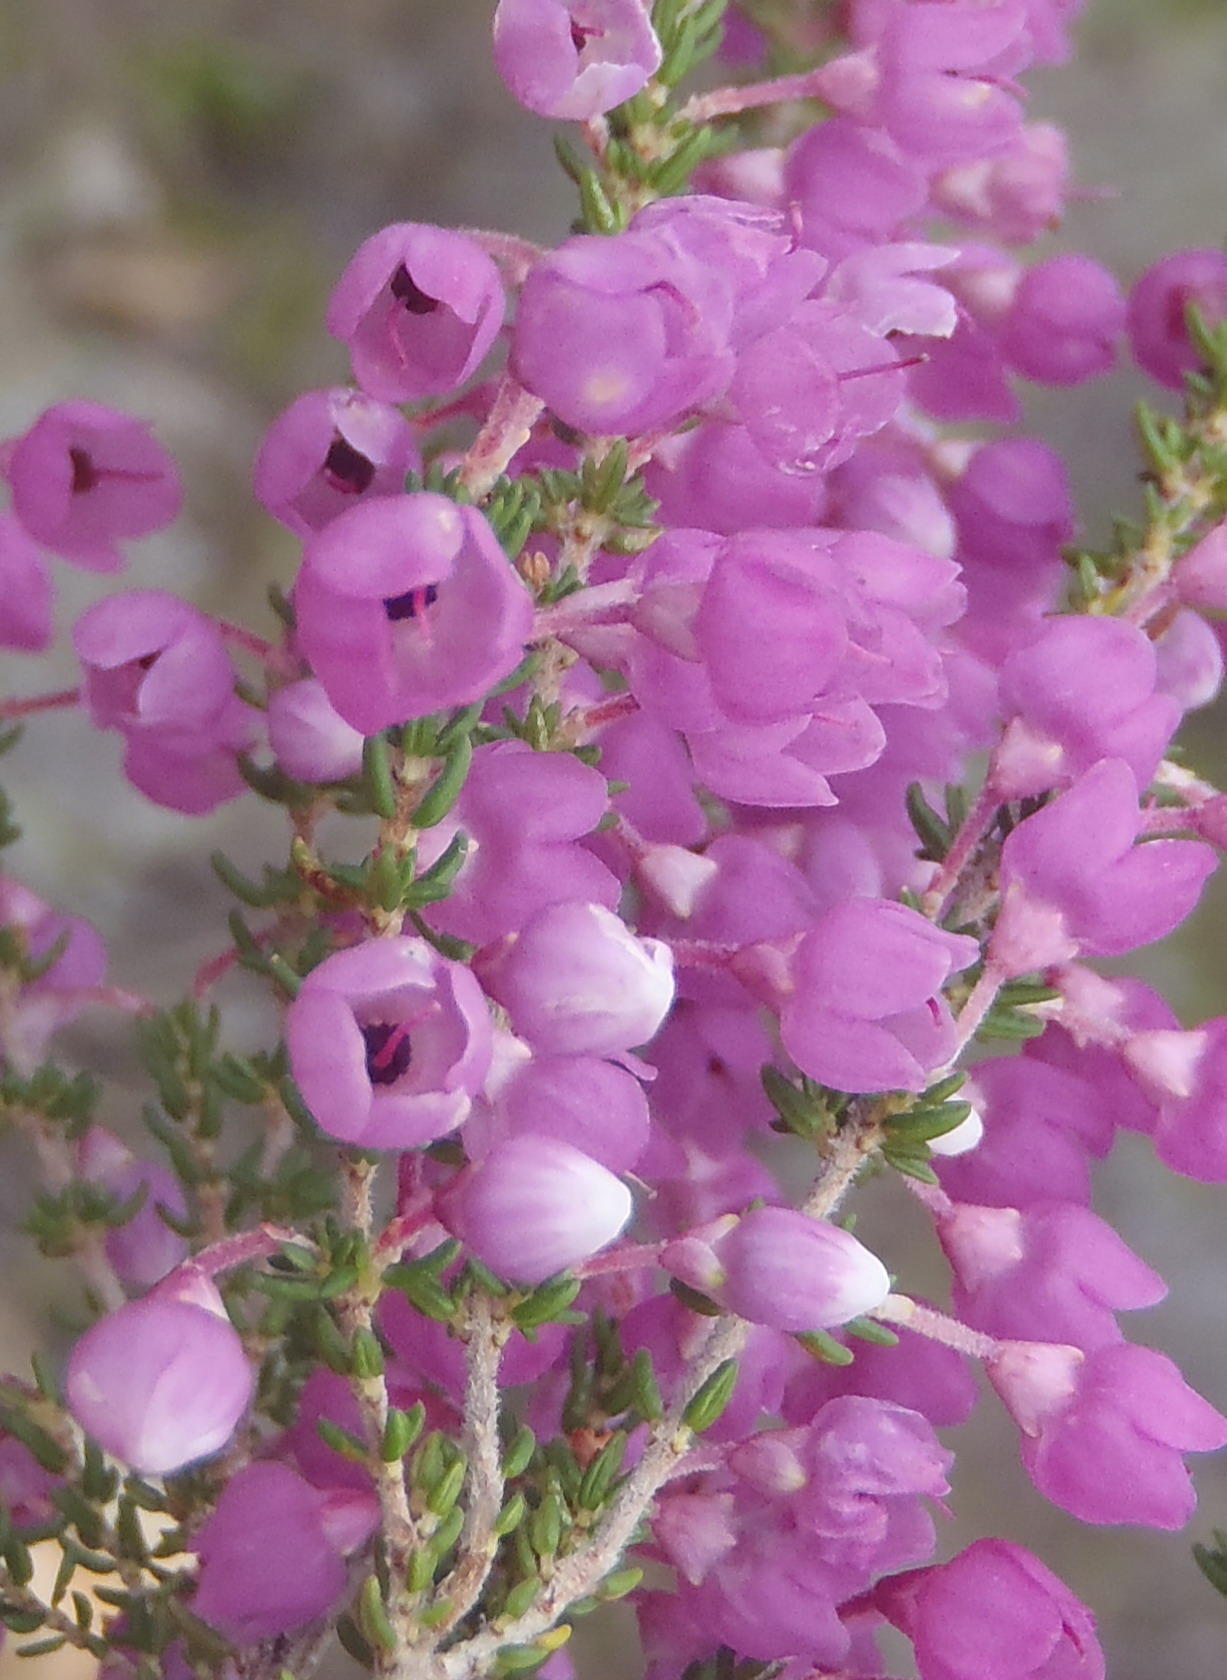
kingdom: Plantae
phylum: Tracheophyta
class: Magnoliopsida
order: Ericales
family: Ericaceae
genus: Erica
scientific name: Erica melanthera
